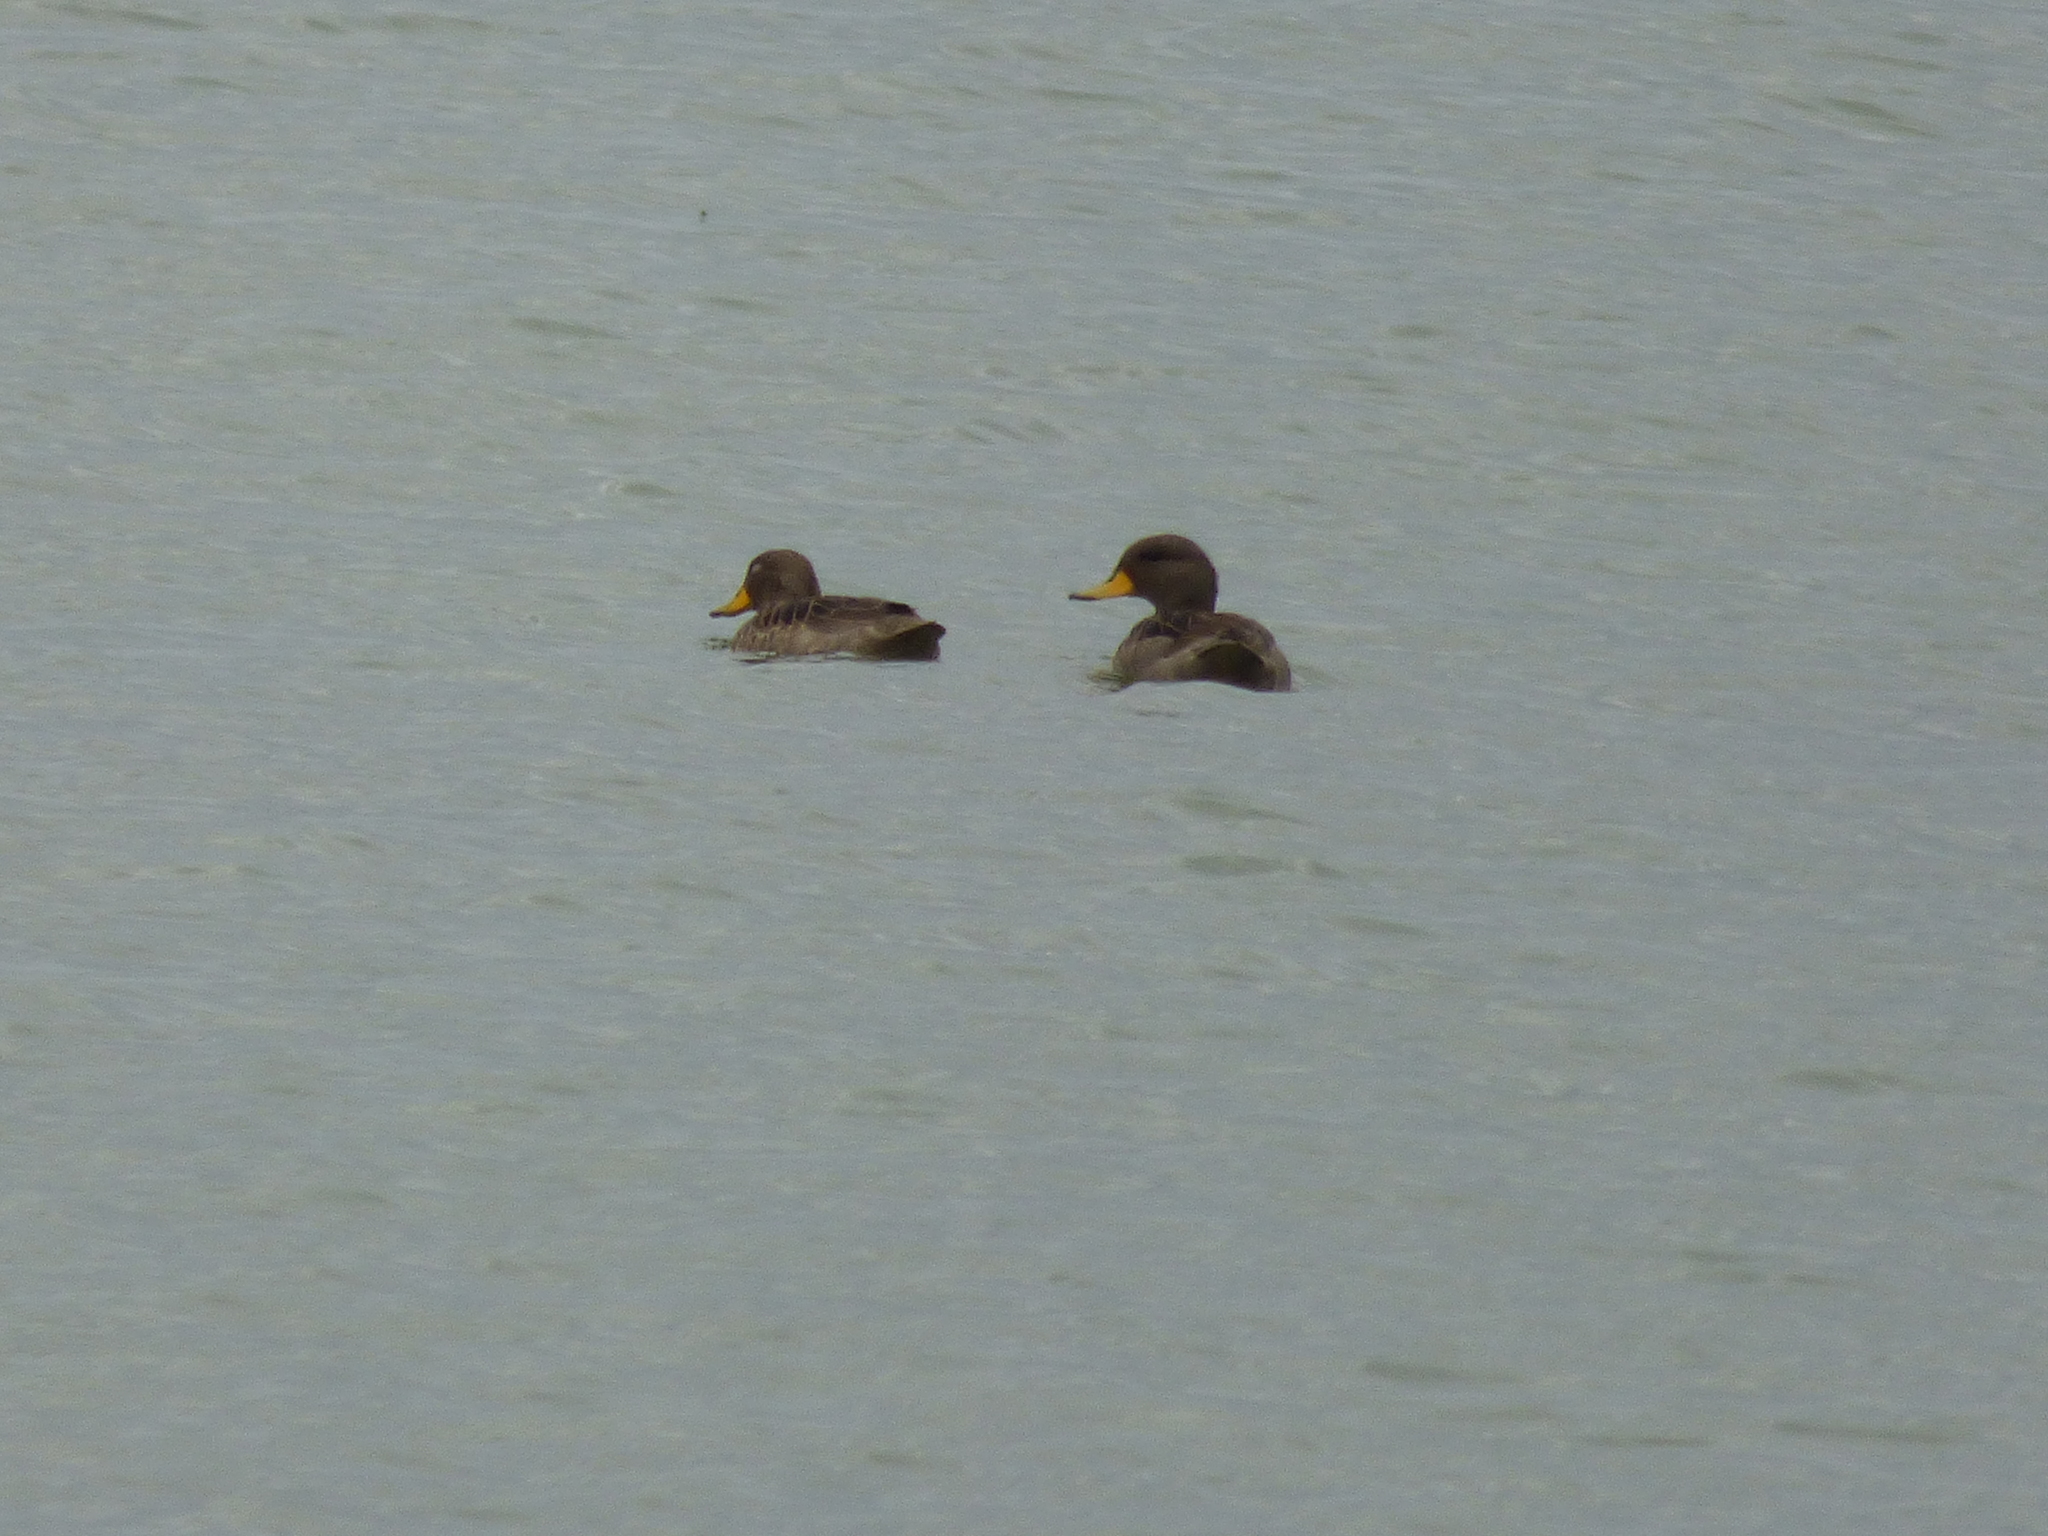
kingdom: Animalia
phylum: Chordata
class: Aves
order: Anseriformes
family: Anatidae
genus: Anas
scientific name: Anas flavirostris
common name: Yellow-billed teal
